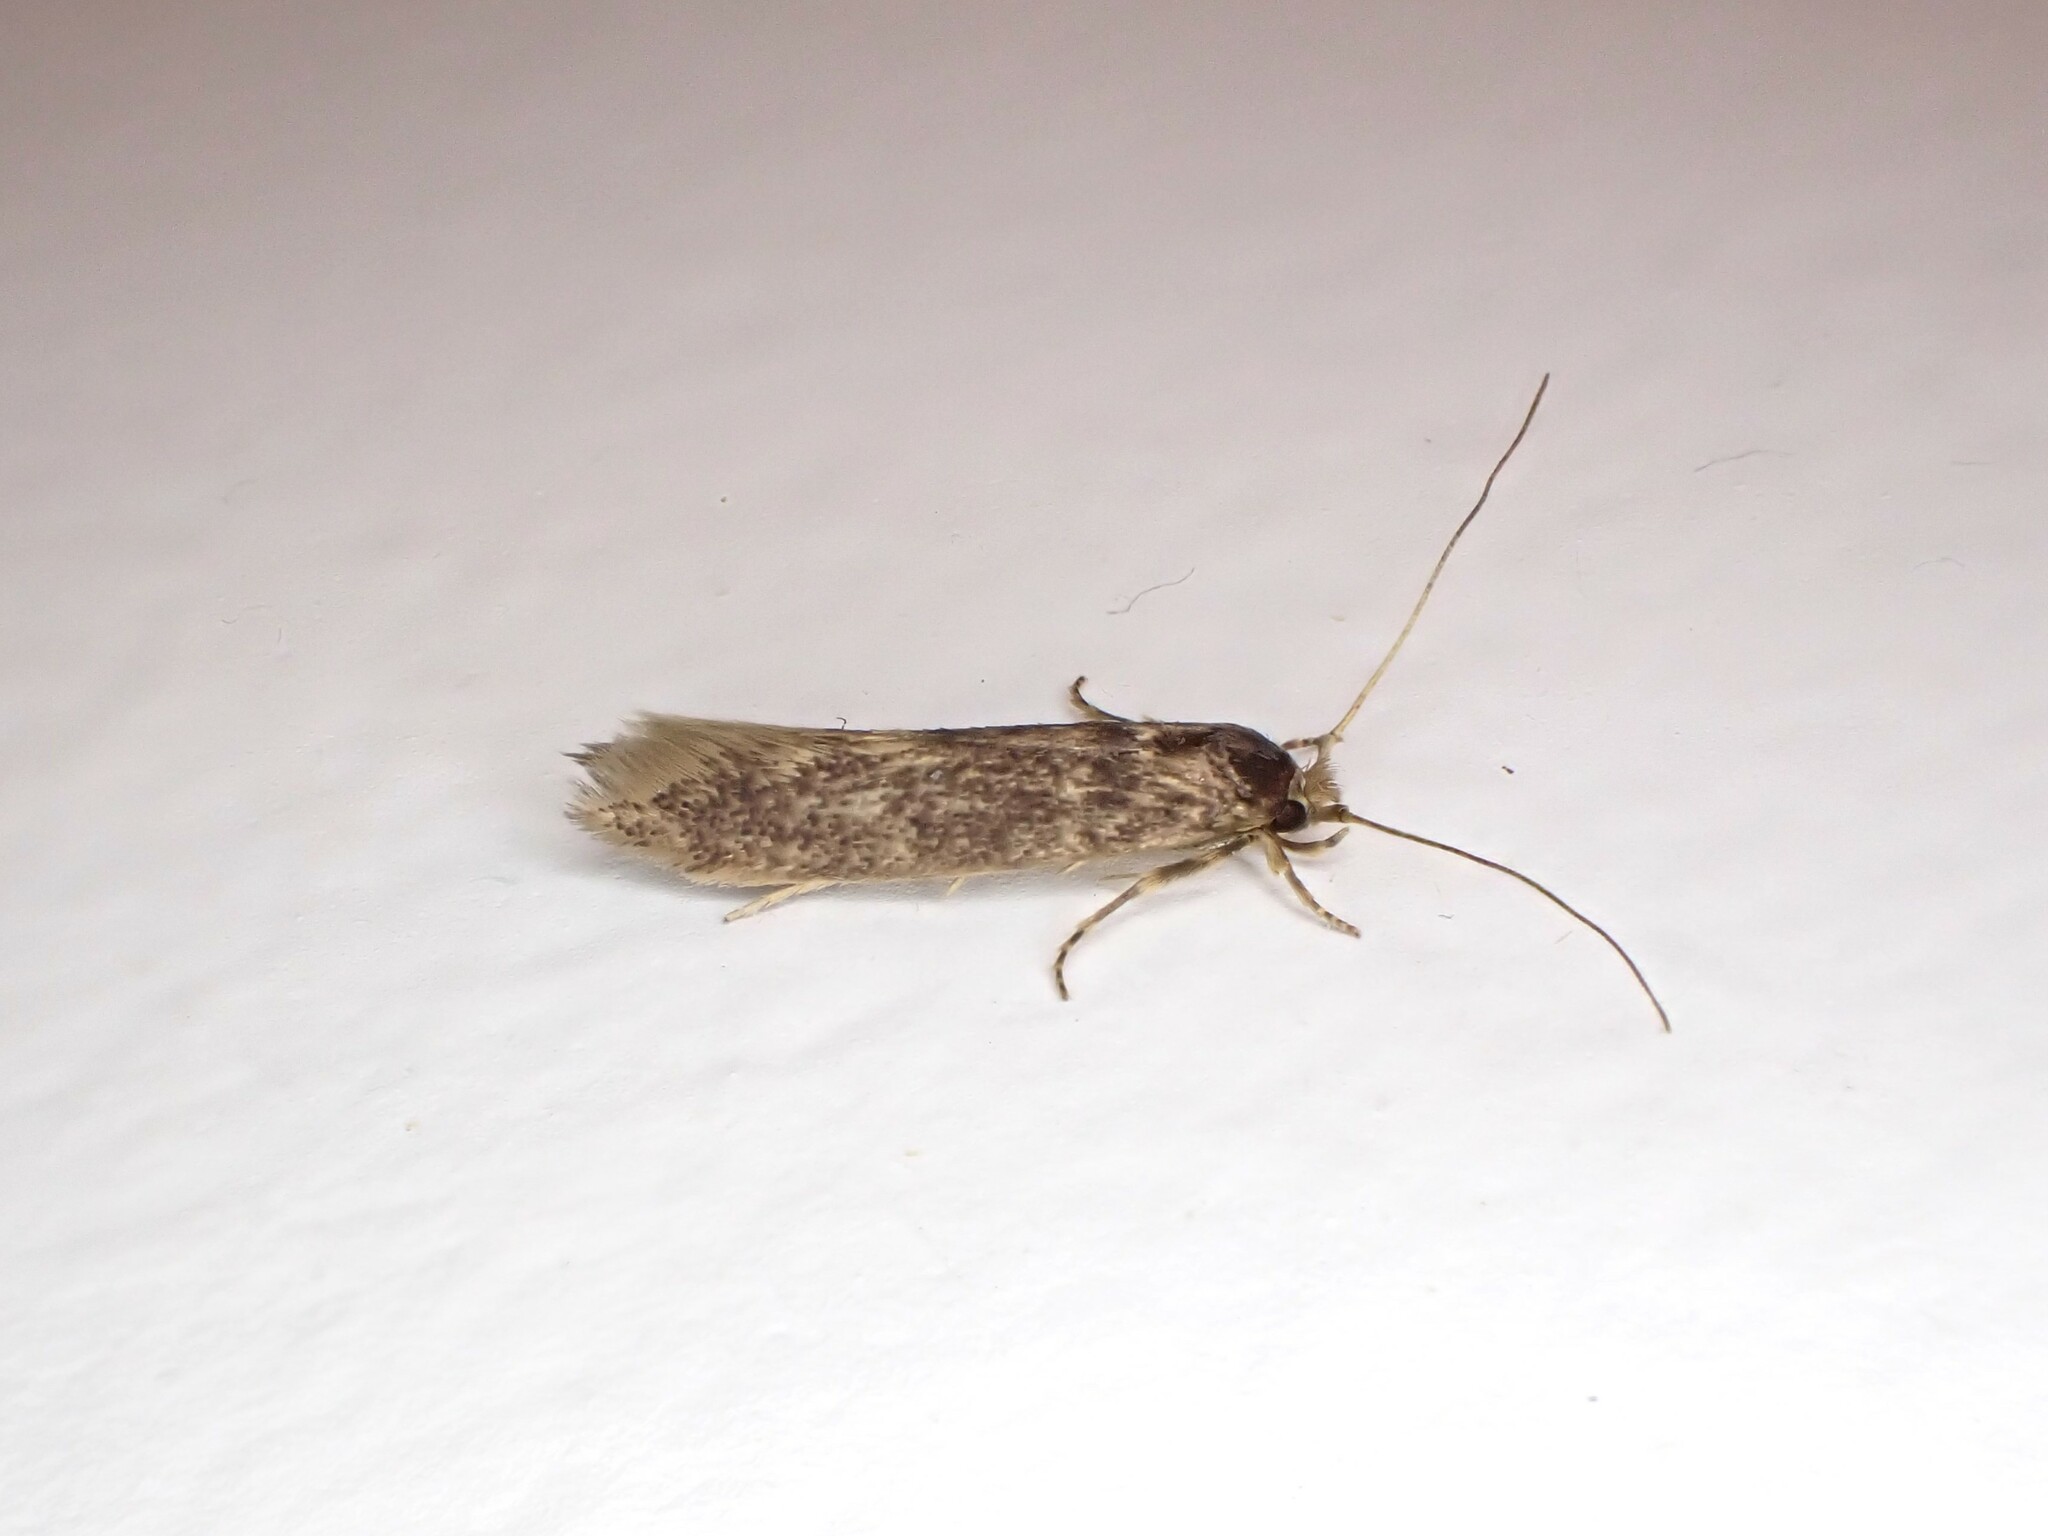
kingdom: Animalia
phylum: Arthropoda
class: Insecta
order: Lepidoptera
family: Tineidae
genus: Opogona
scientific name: Opogona omoscopa
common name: Moth
